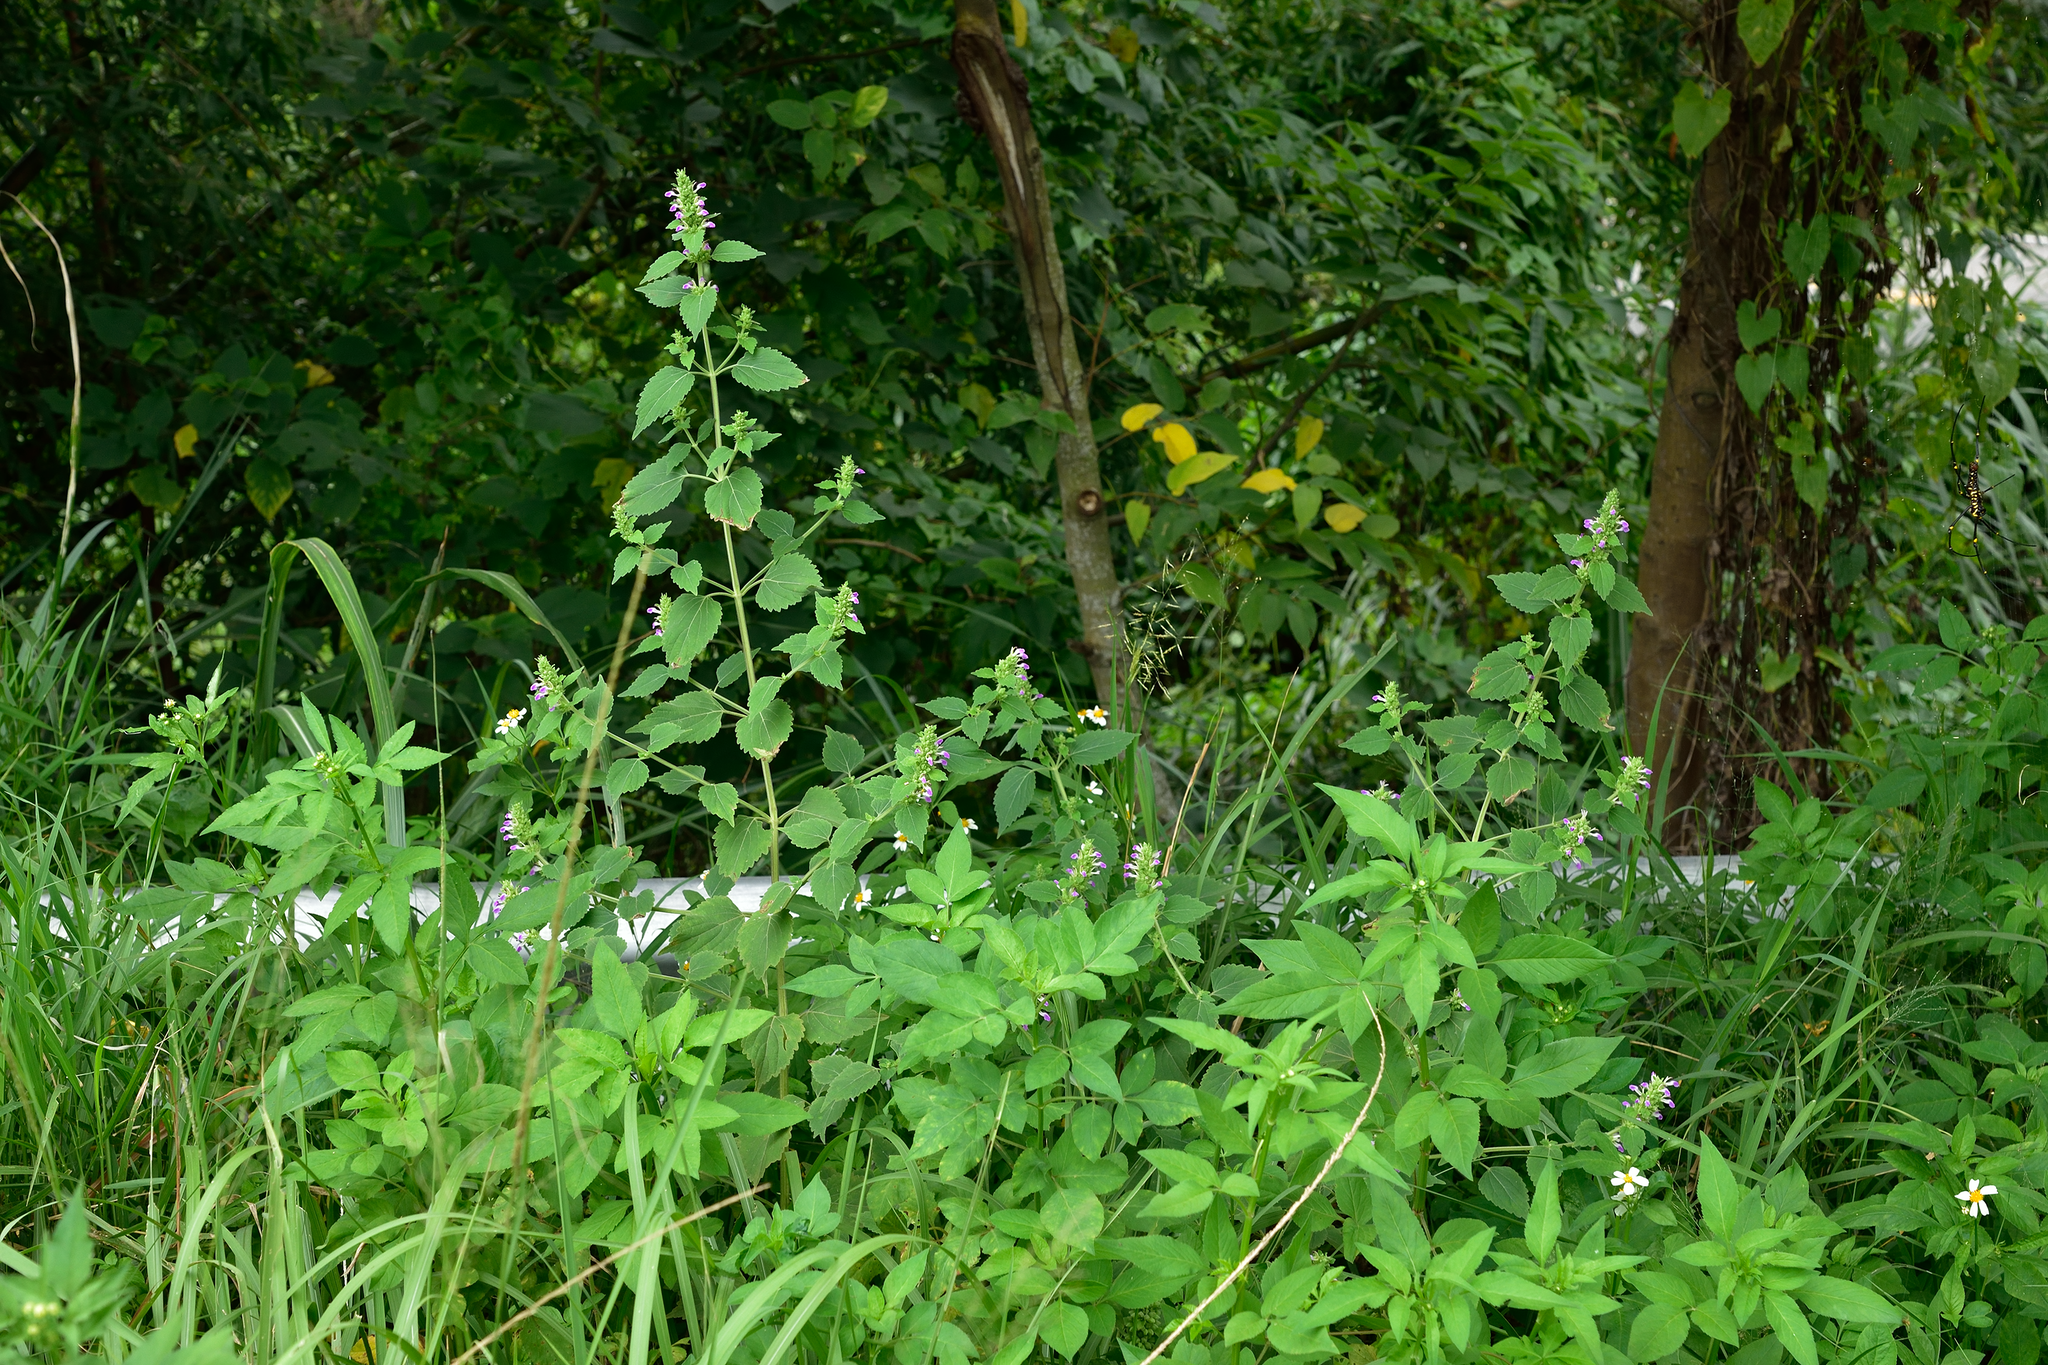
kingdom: Plantae
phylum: Tracheophyta
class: Magnoliopsida
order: Lamiales
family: Lamiaceae
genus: Anisomeles
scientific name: Anisomeles indica
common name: Catmint
